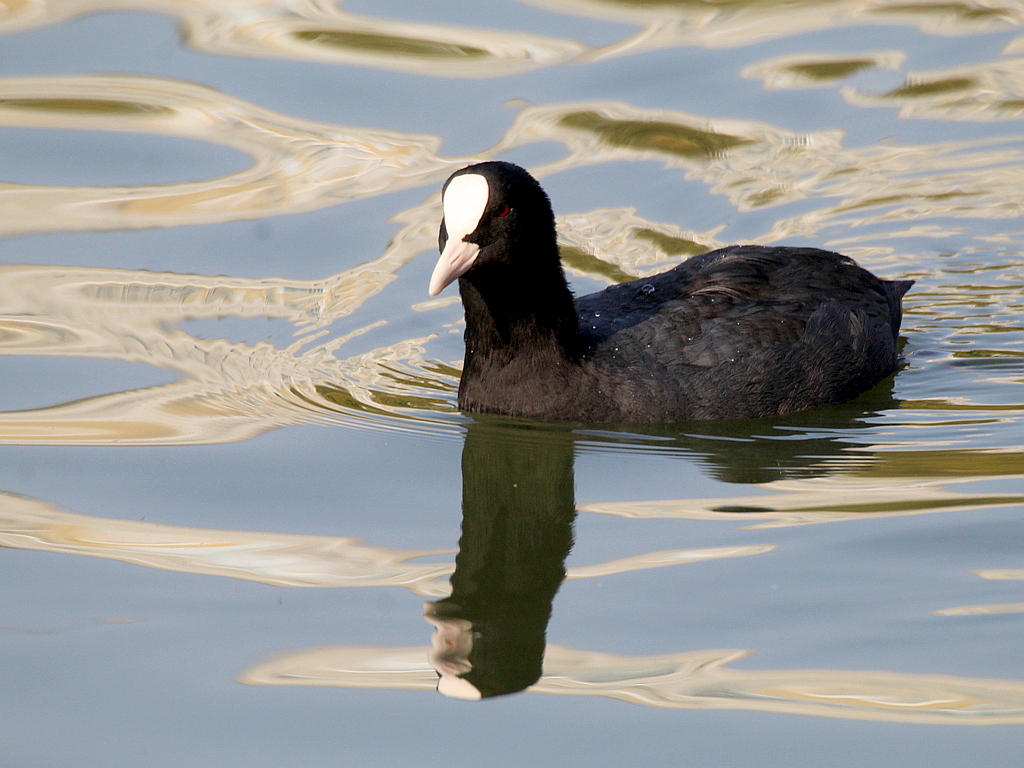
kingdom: Animalia
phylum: Chordata
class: Aves
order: Gruiformes
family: Rallidae
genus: Fulica
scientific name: Fulica atra
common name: Eurasian coot
